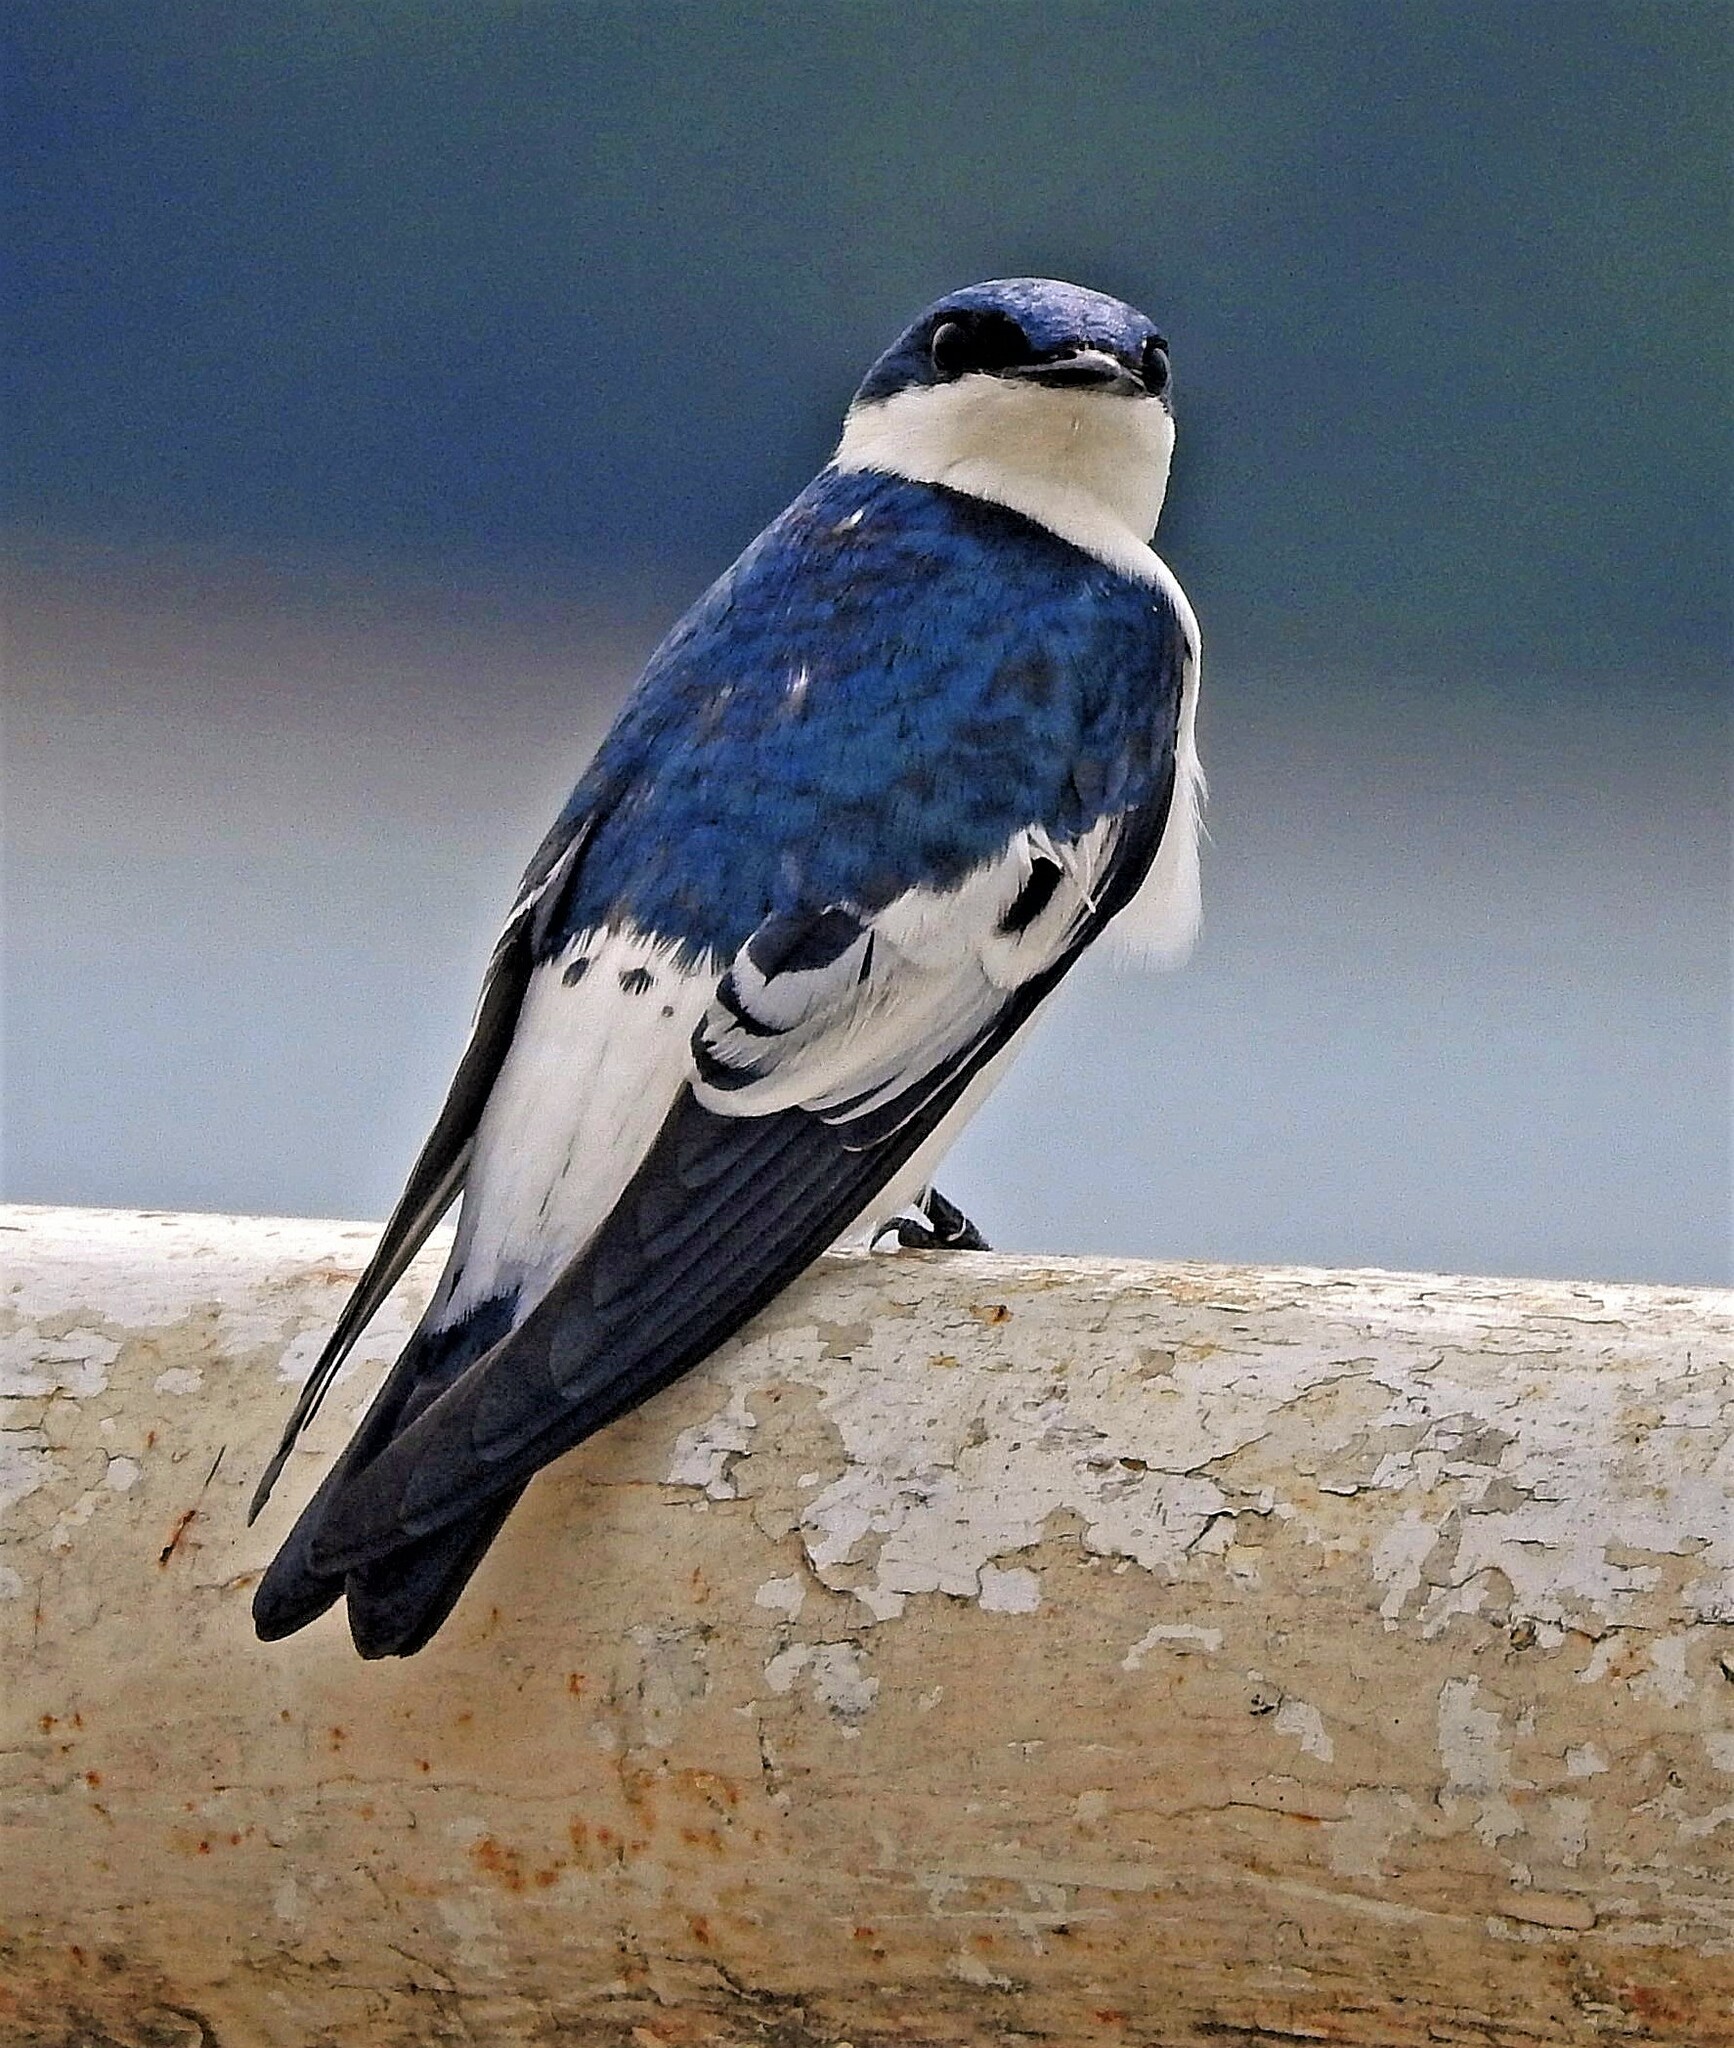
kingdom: Animalia
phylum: Chordata
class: Aves
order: Passeriformes
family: Hirundinidae
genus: Tachycineta
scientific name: Tachycineta albiventer
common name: White-winged swallow
